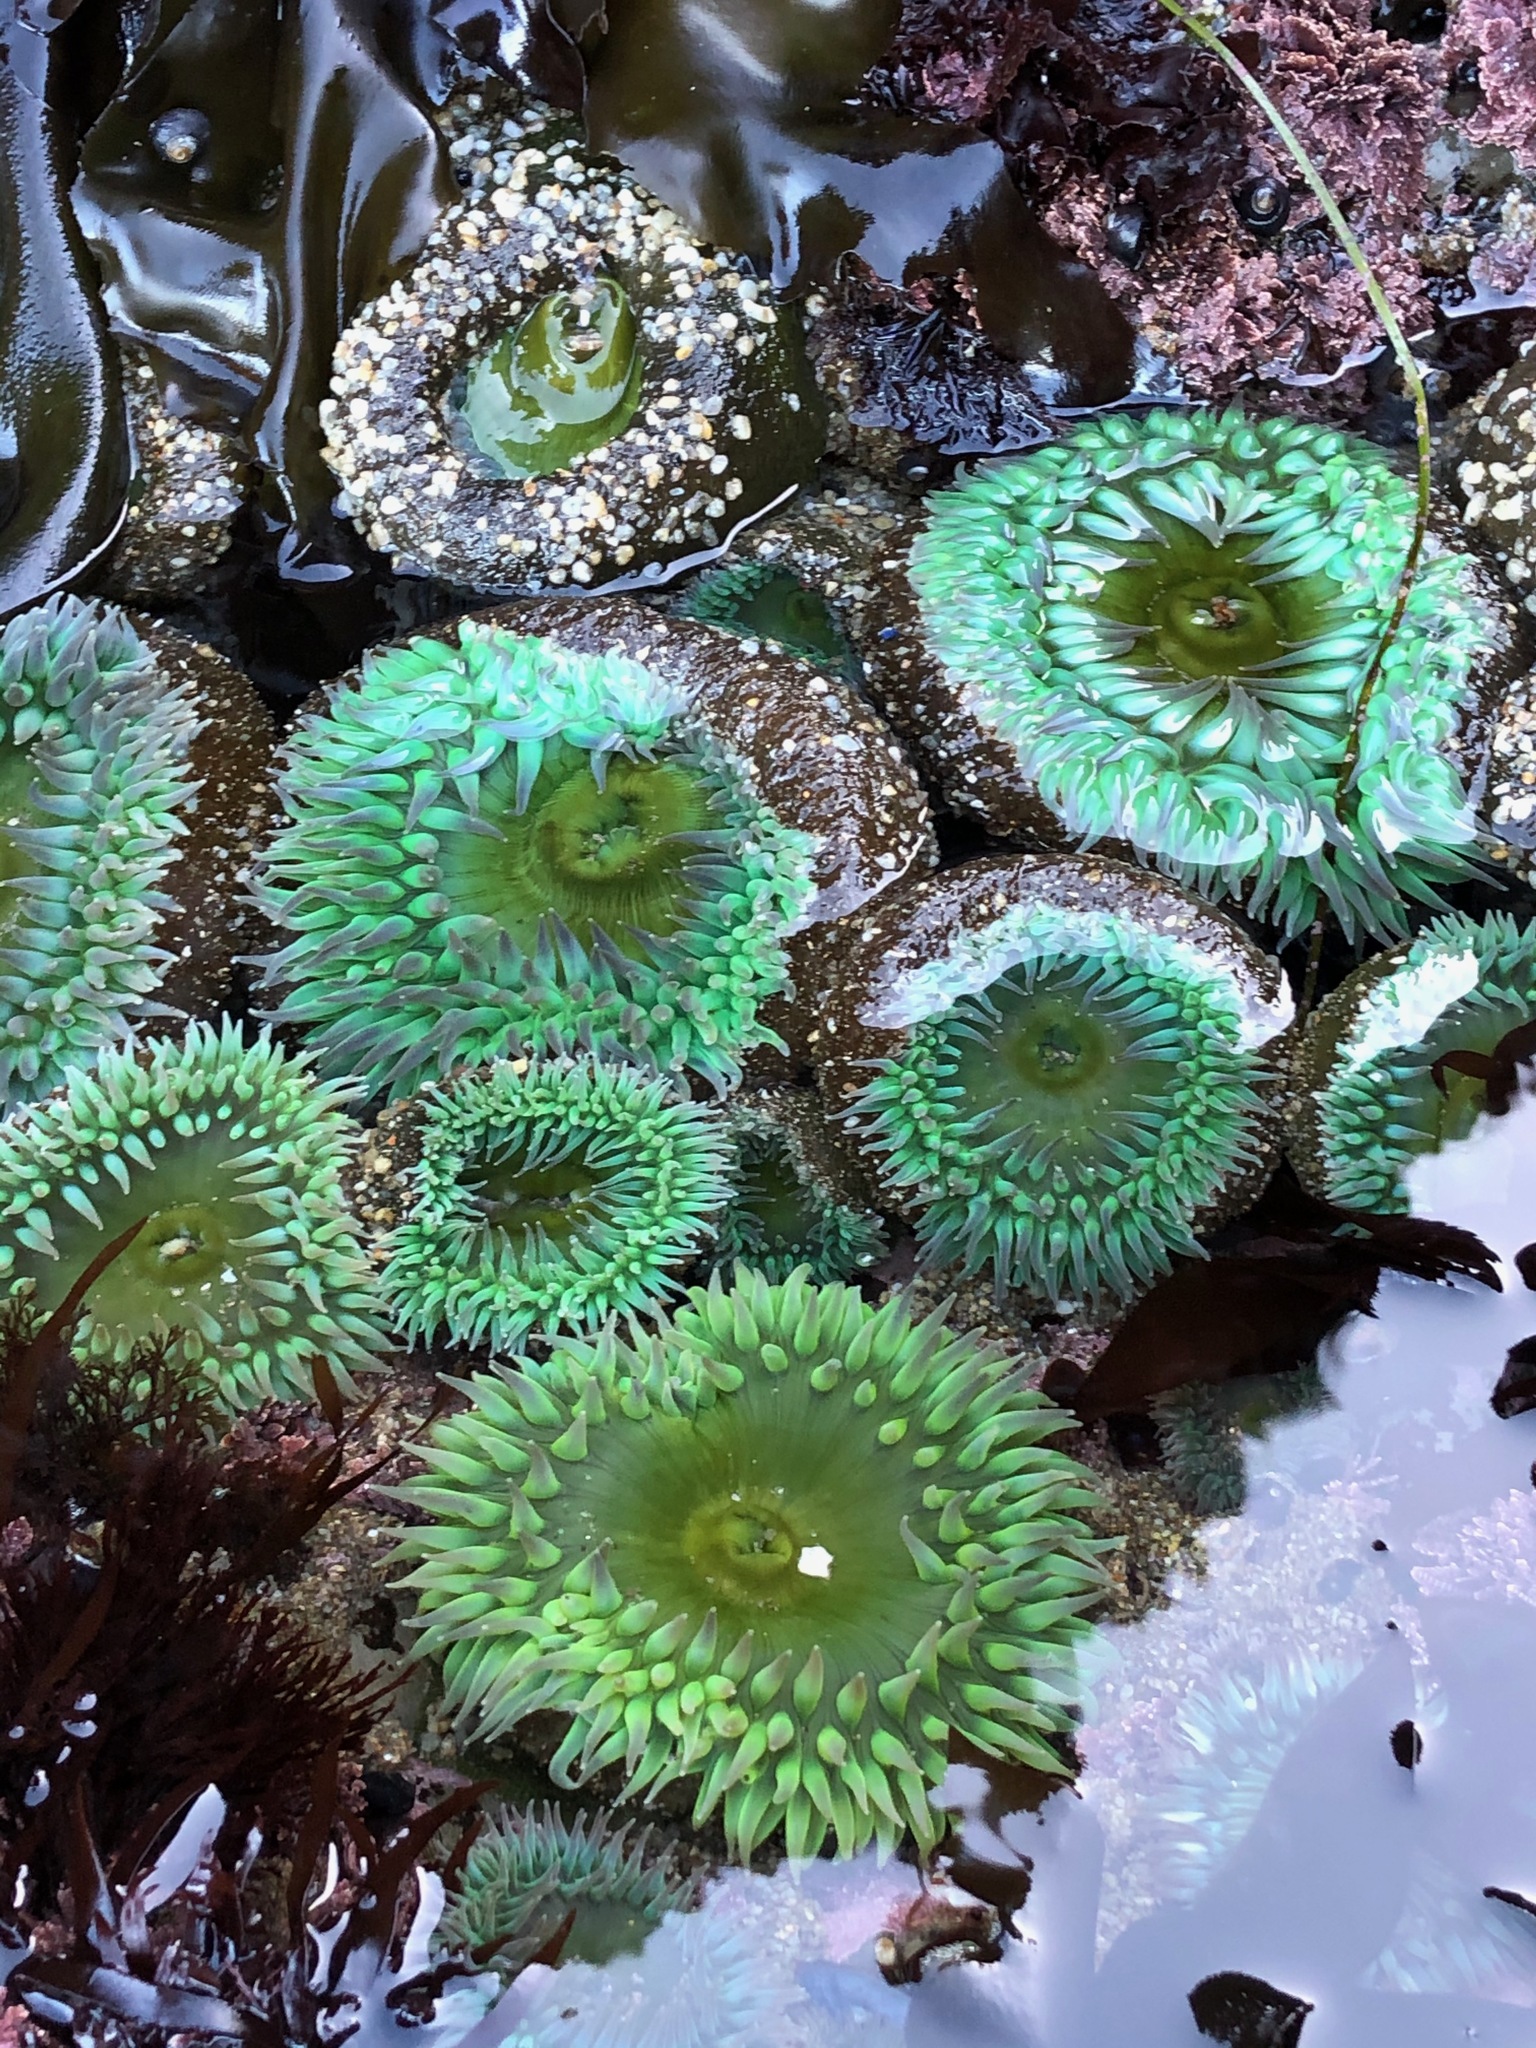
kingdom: Animalia
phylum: Cnidaria
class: Anthozoa
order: Actiniaria
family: Actiniidae
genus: Anthopleura
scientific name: Anthopleura xanthogrammica
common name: Giant green anemone
